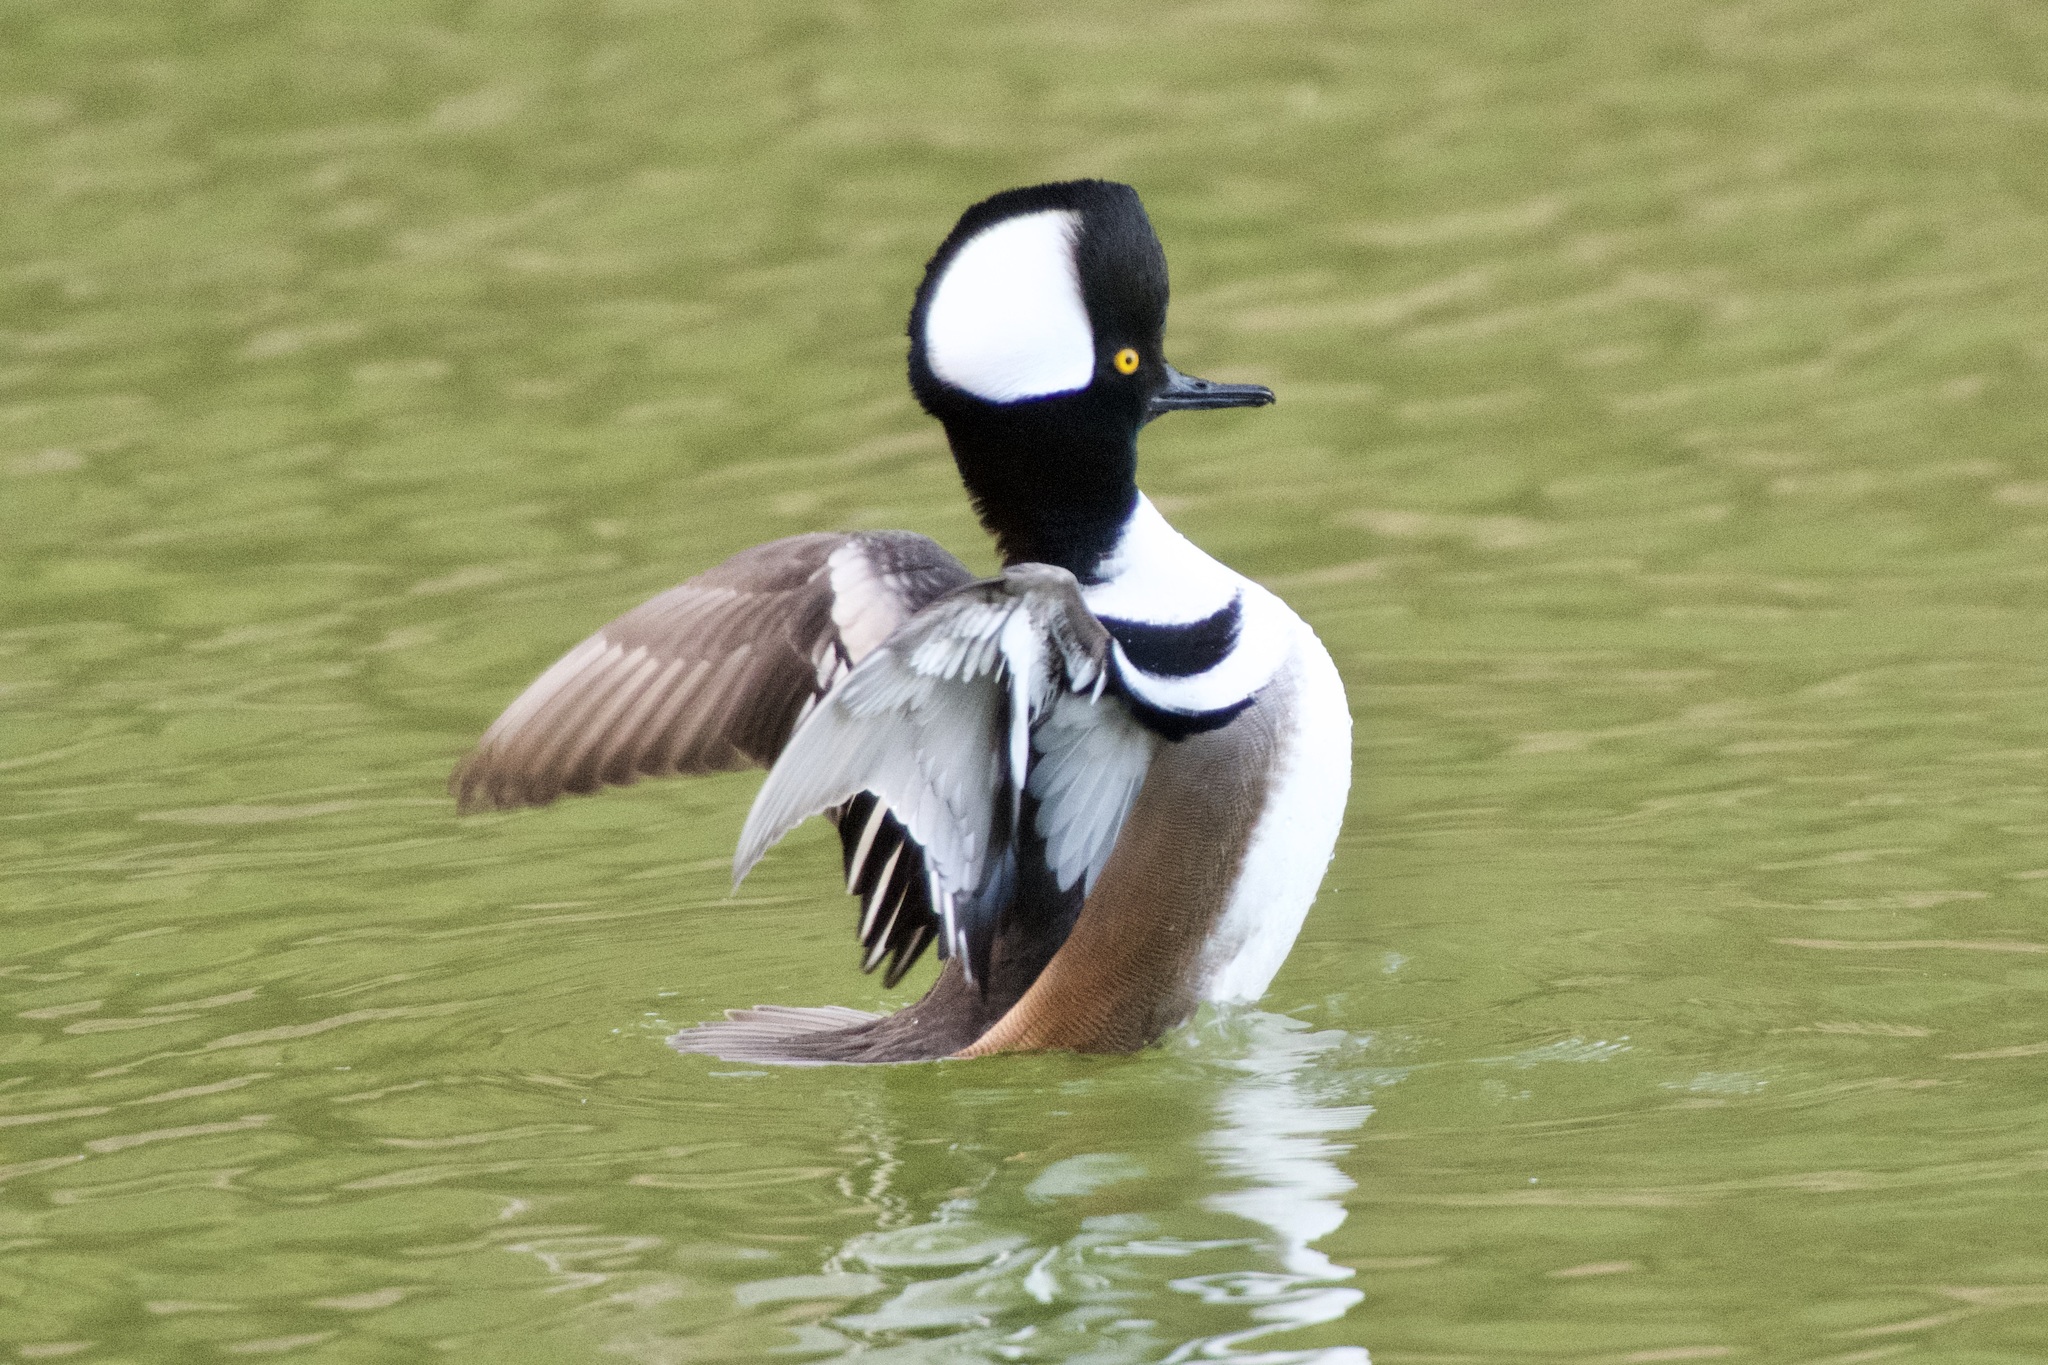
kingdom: Animalia
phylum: Chordata
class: Aves
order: Anseriformes
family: Anatidae
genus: Lophodytes
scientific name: Lophodytes cucullatus
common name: Hooded merganser
